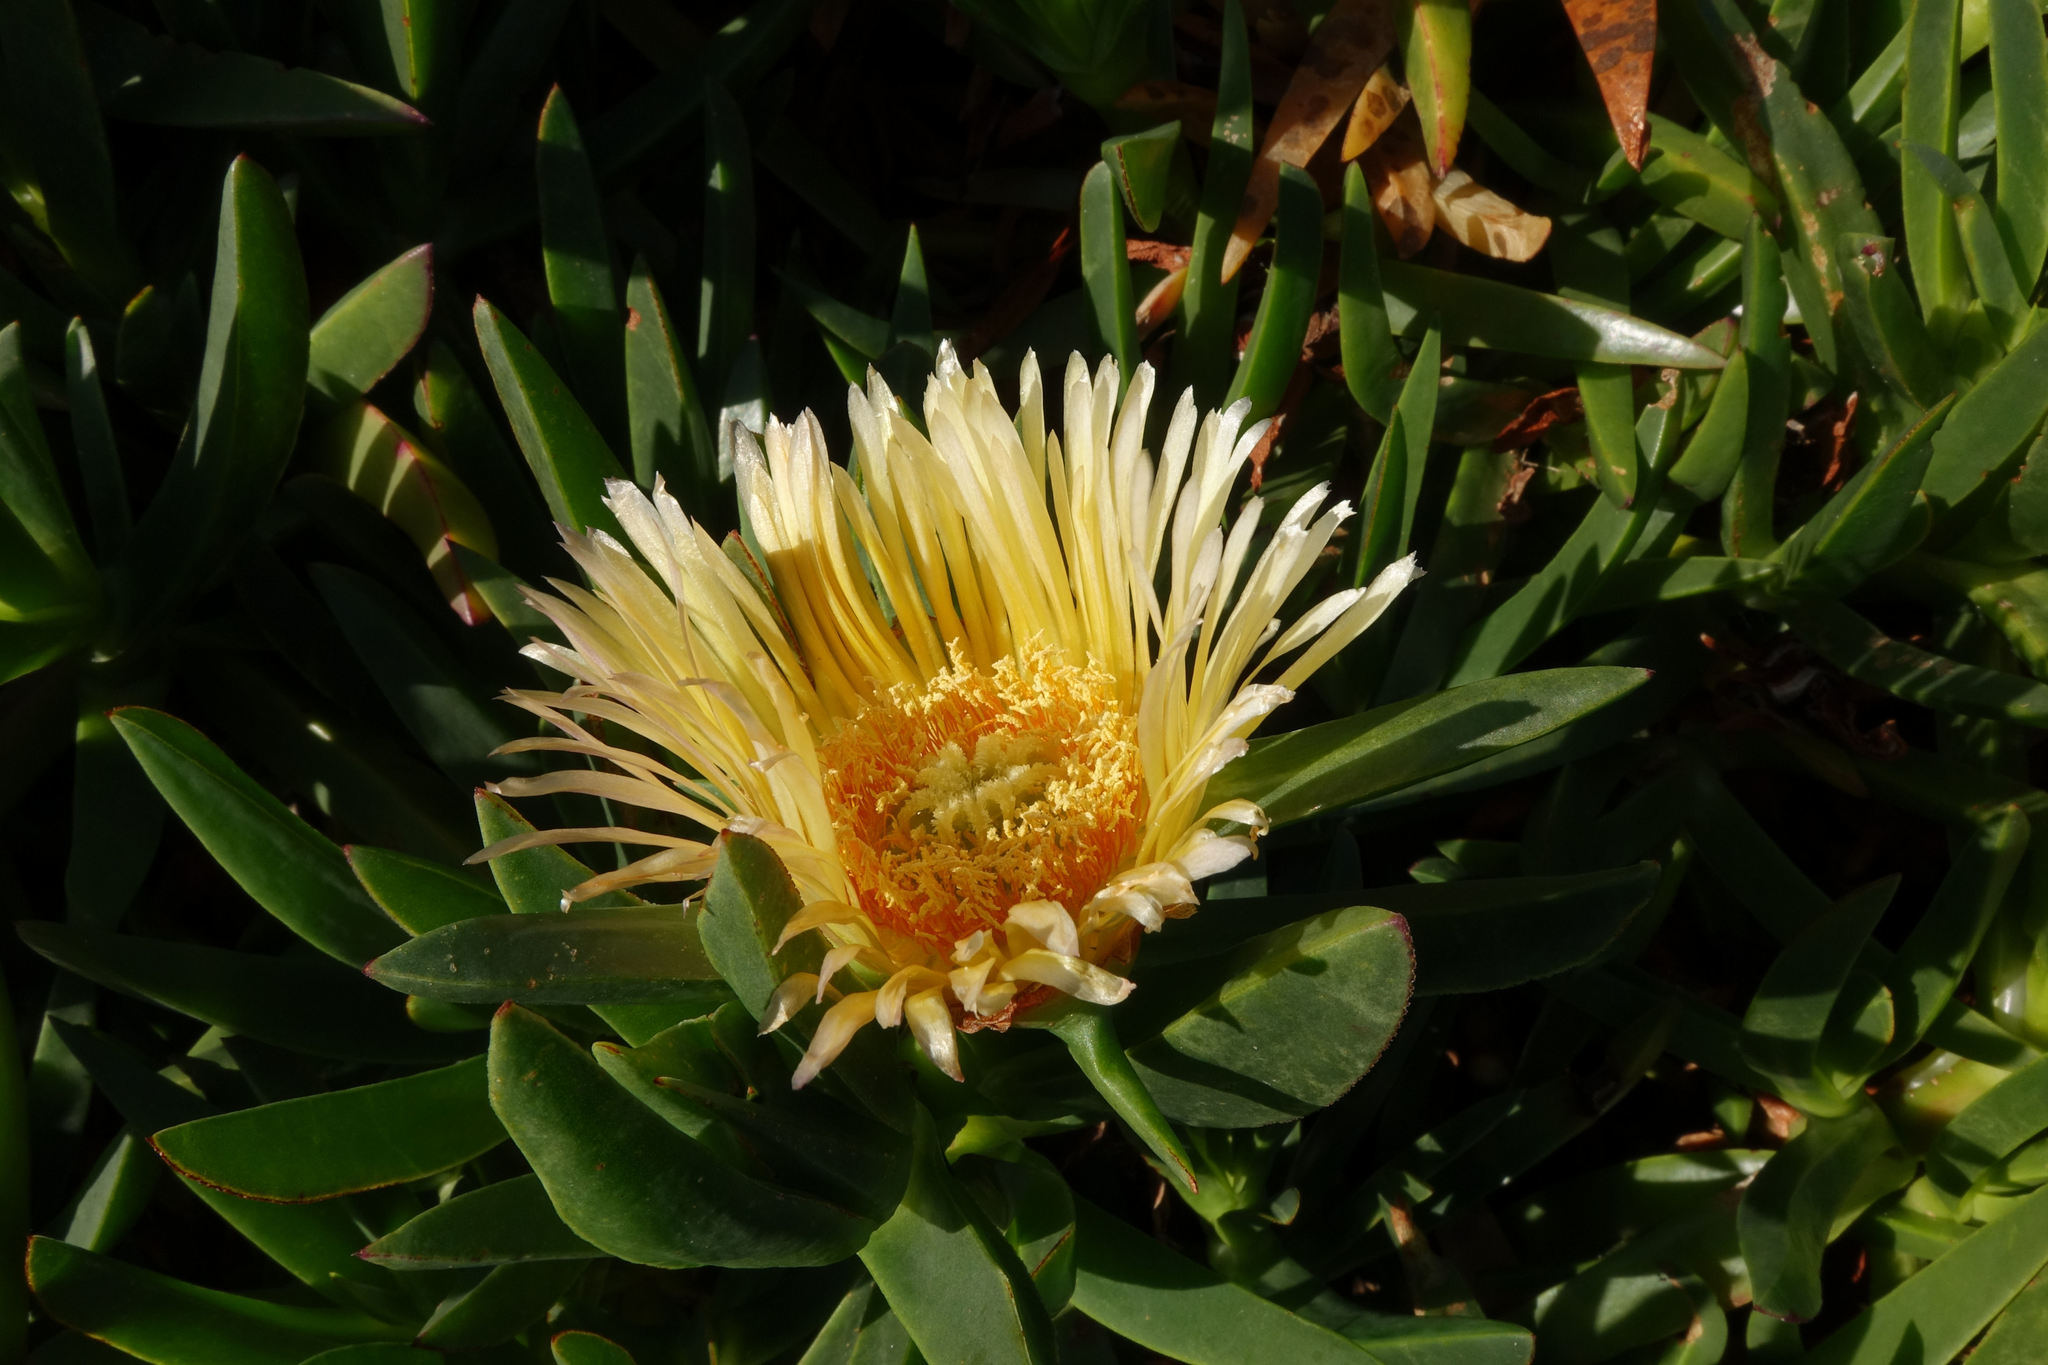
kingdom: Plantae
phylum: Tracheophyta
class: Magnoliopsida
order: Caryophyllales
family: Aizoaceae
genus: Carpobrotus
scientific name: Carpobrotus edulis
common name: Hottentot-fig
